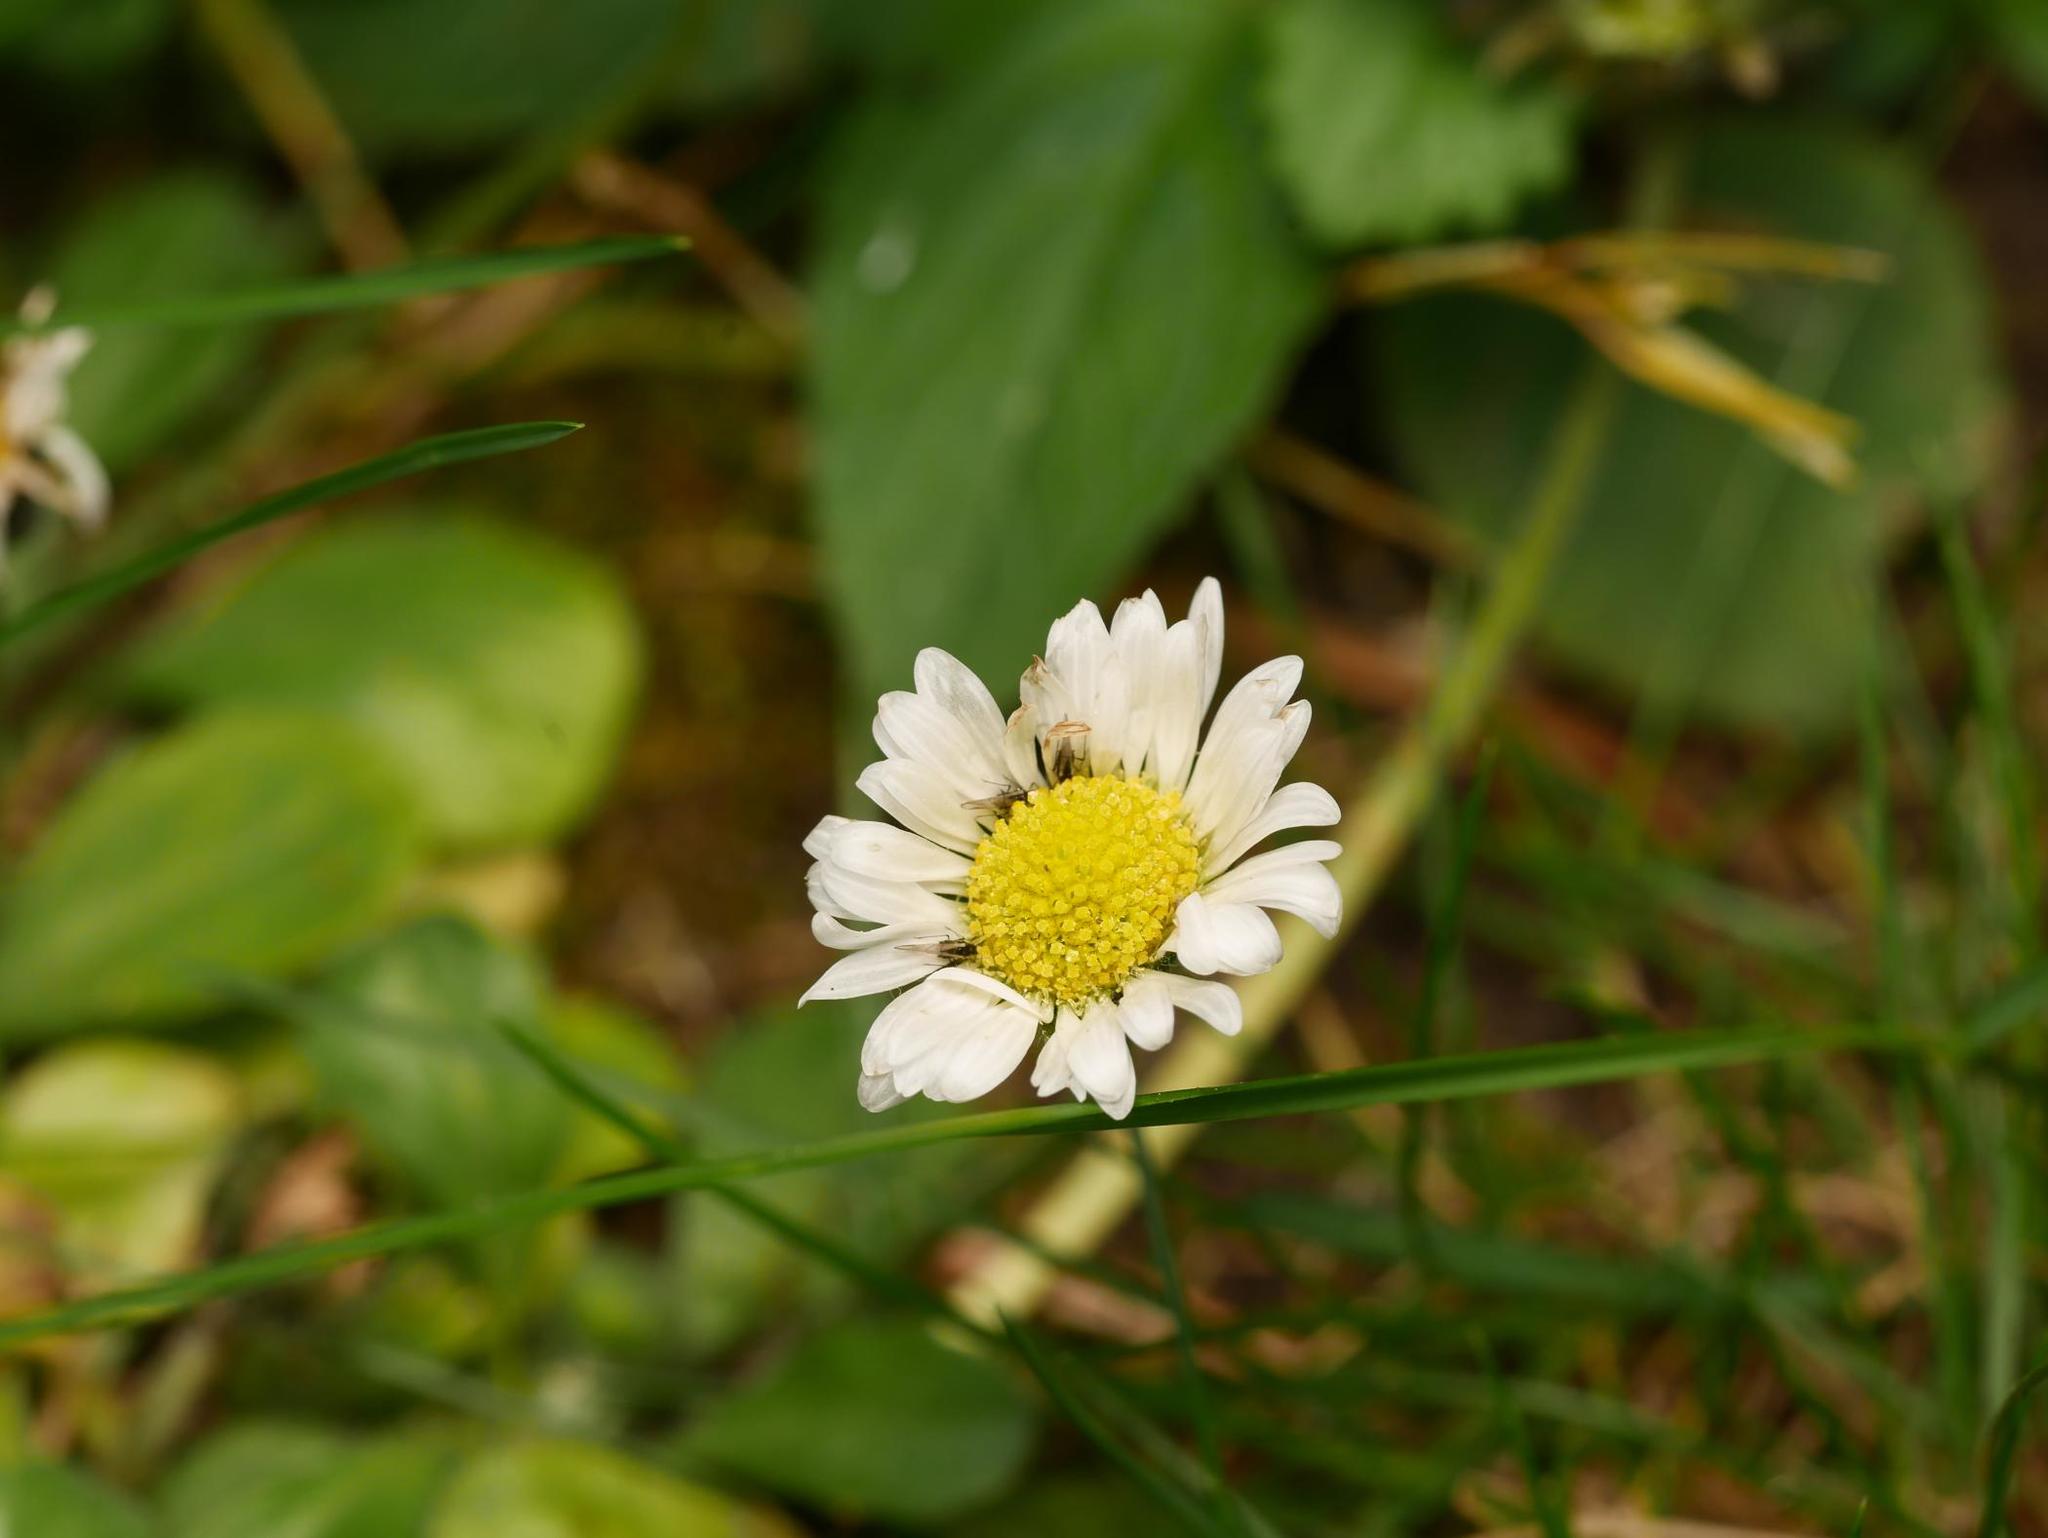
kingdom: Plantae
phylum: Tracheophyta
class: Magnoliopsida
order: Asterales
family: Asteraceae
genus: Bellis
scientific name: Bellis perennis
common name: Lawndaisy
